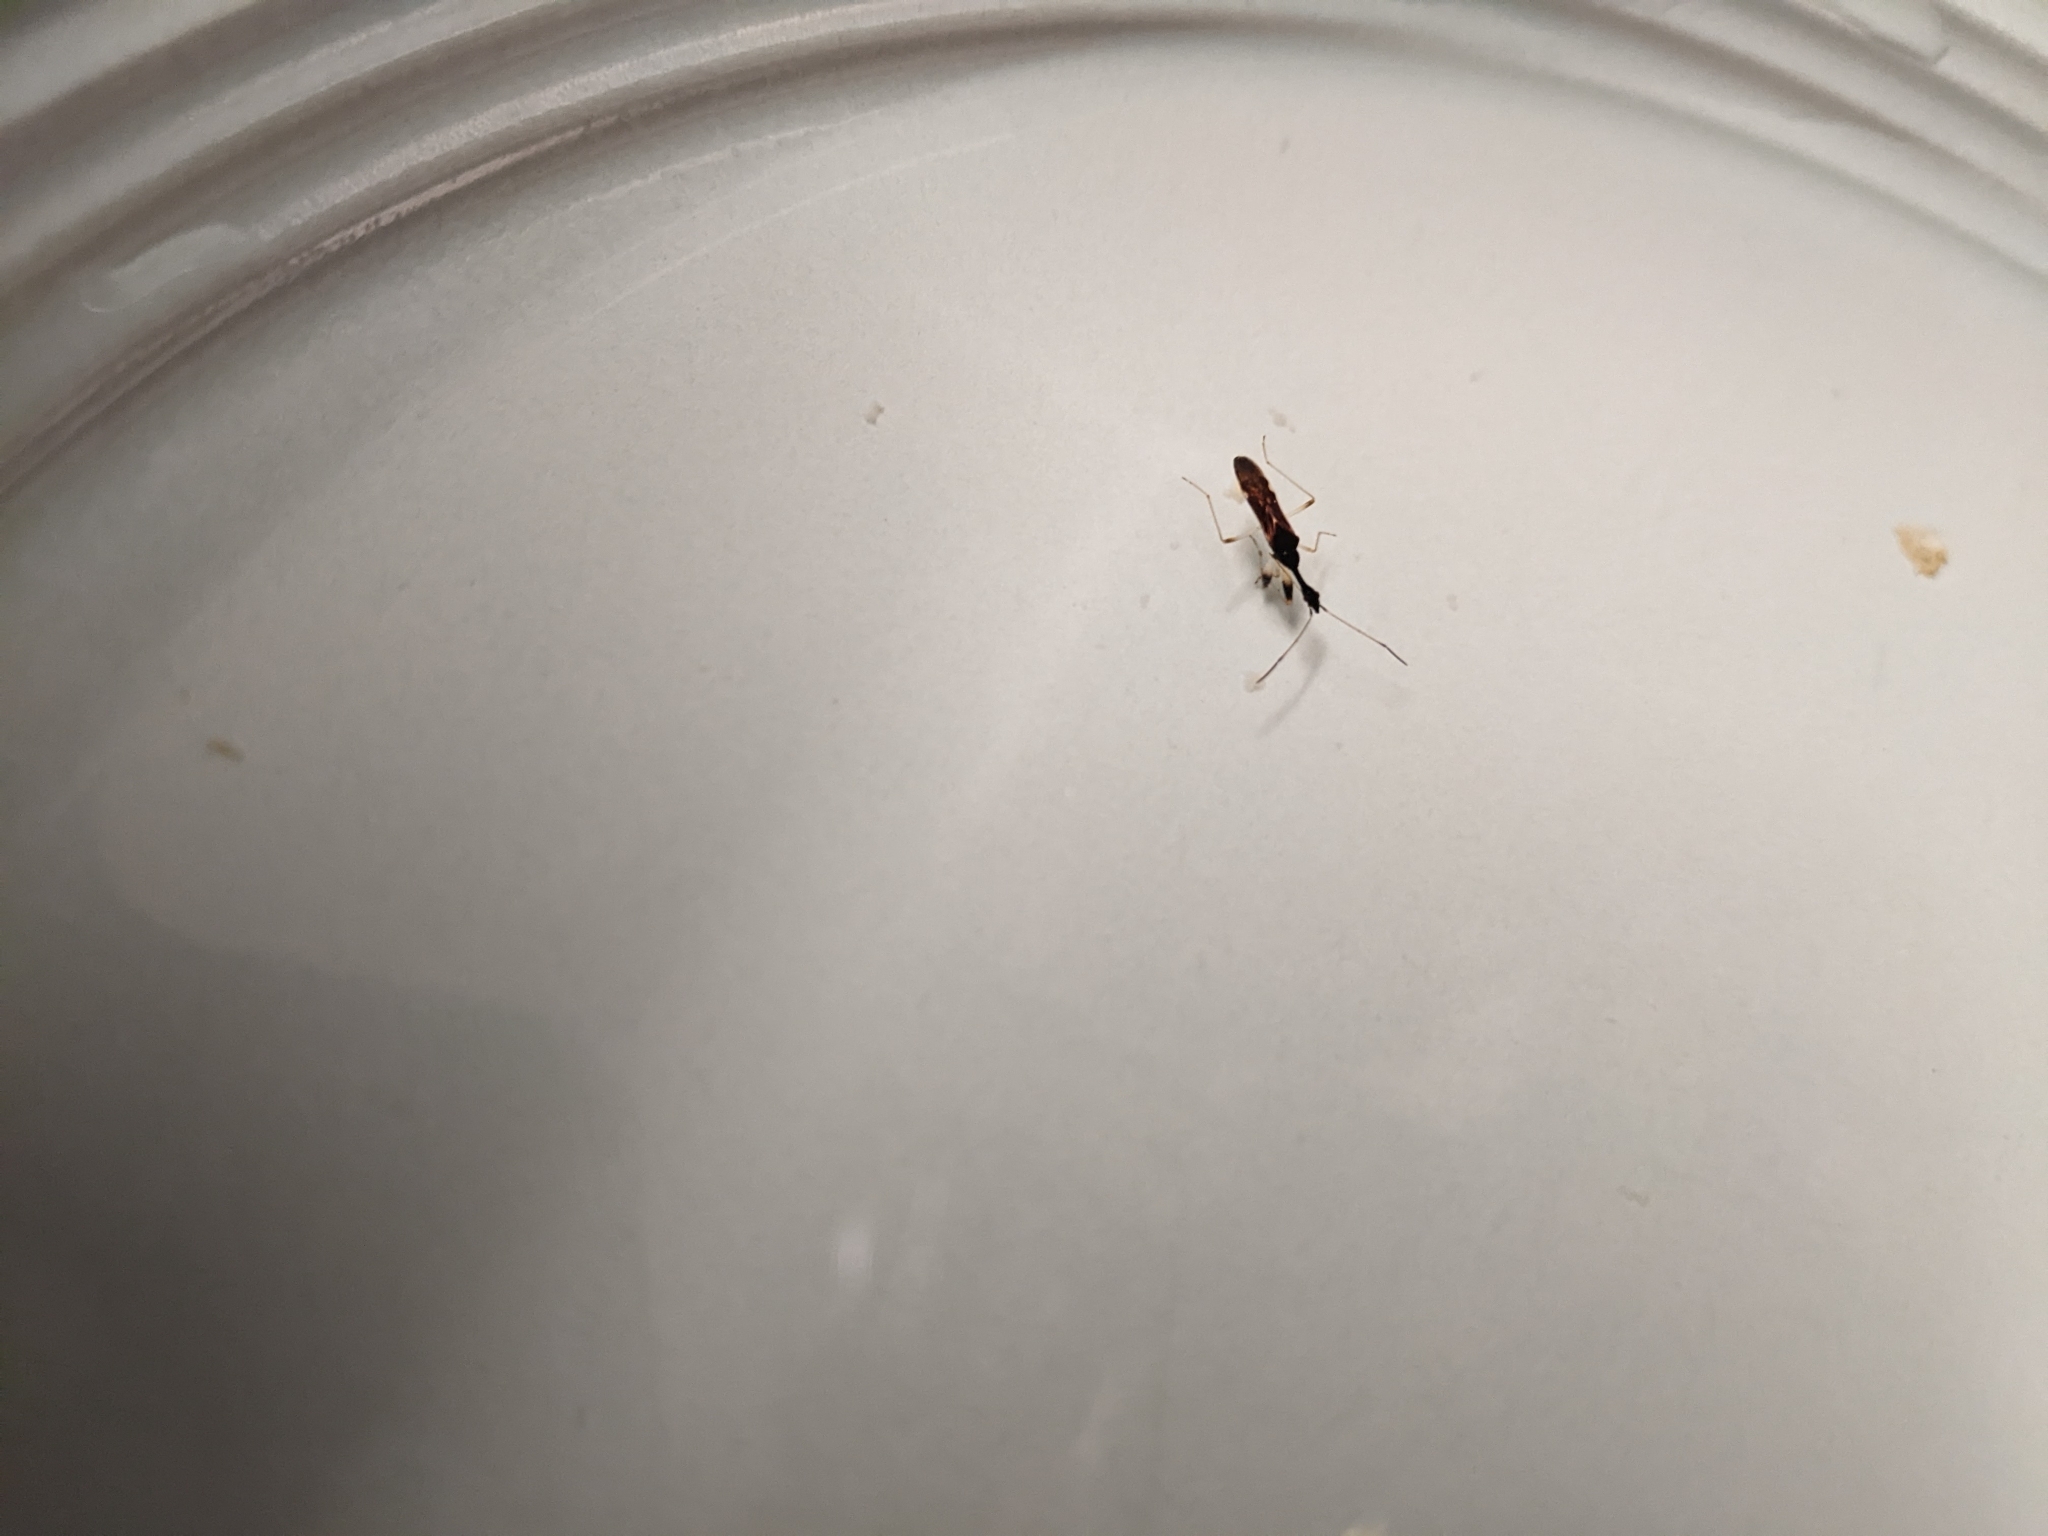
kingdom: Animalia
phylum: Arthropoda
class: Insecta
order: Hemiptera
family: Rhyparochromidae
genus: Myodocha
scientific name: Myodocha serripes
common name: Long-necked seed bug
